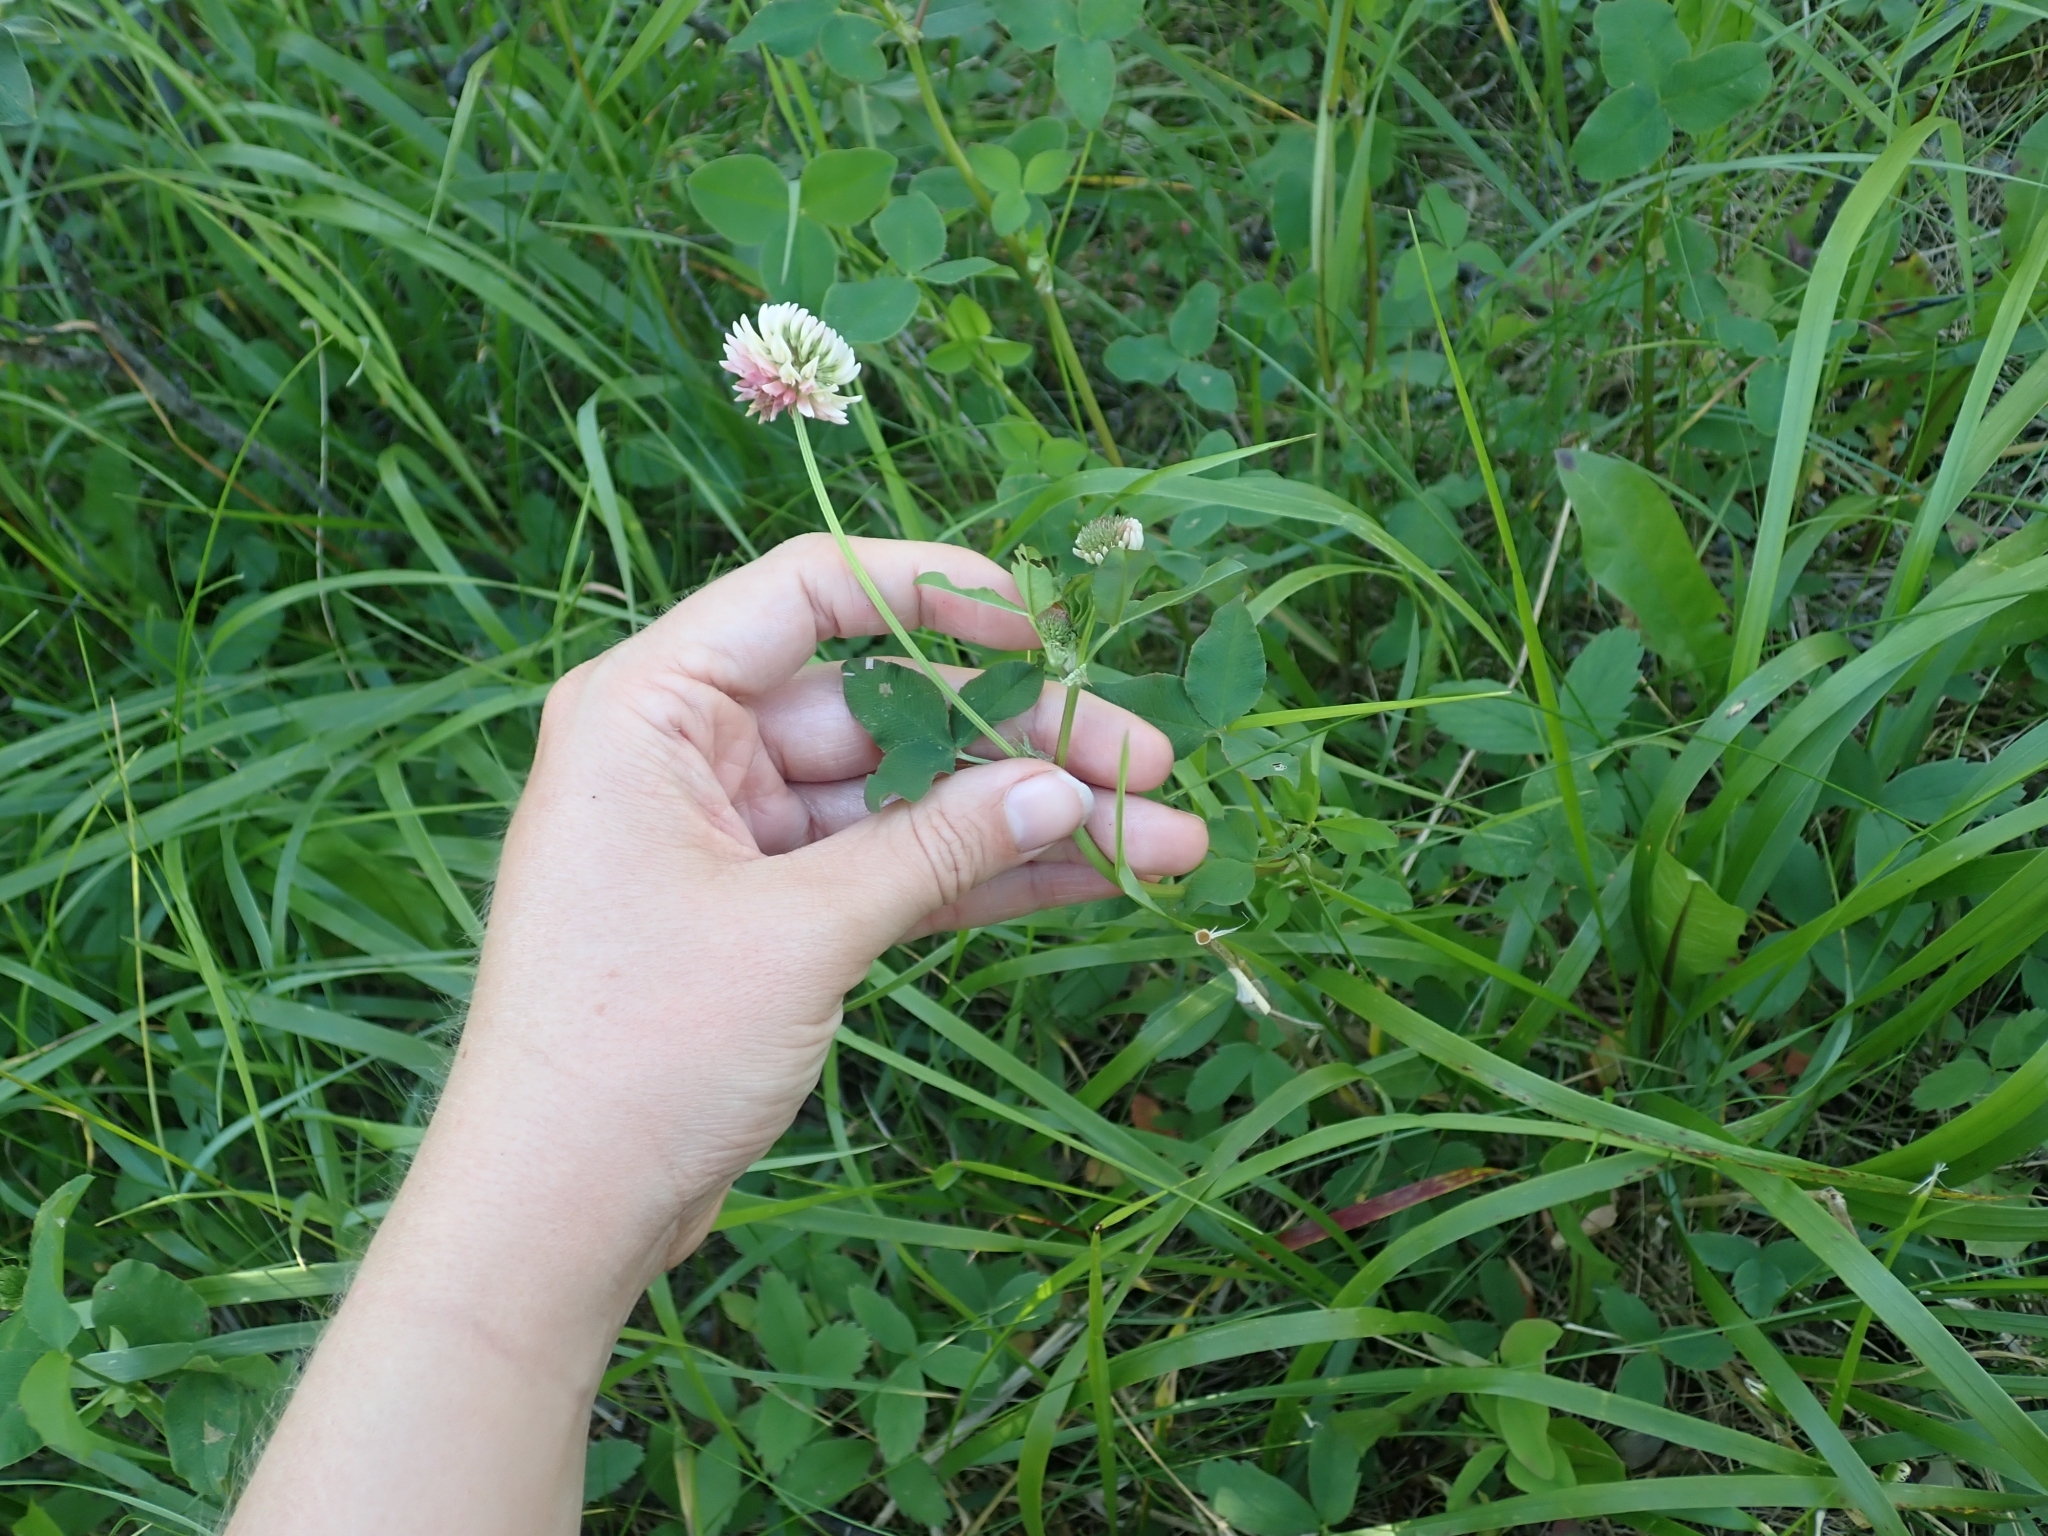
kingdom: Plantae
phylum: Tracheophyta
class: Magnoliopsida
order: Fabales
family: Fabaceae
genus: Trifolium
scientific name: Trifolium hybridum
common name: Alsike clover
